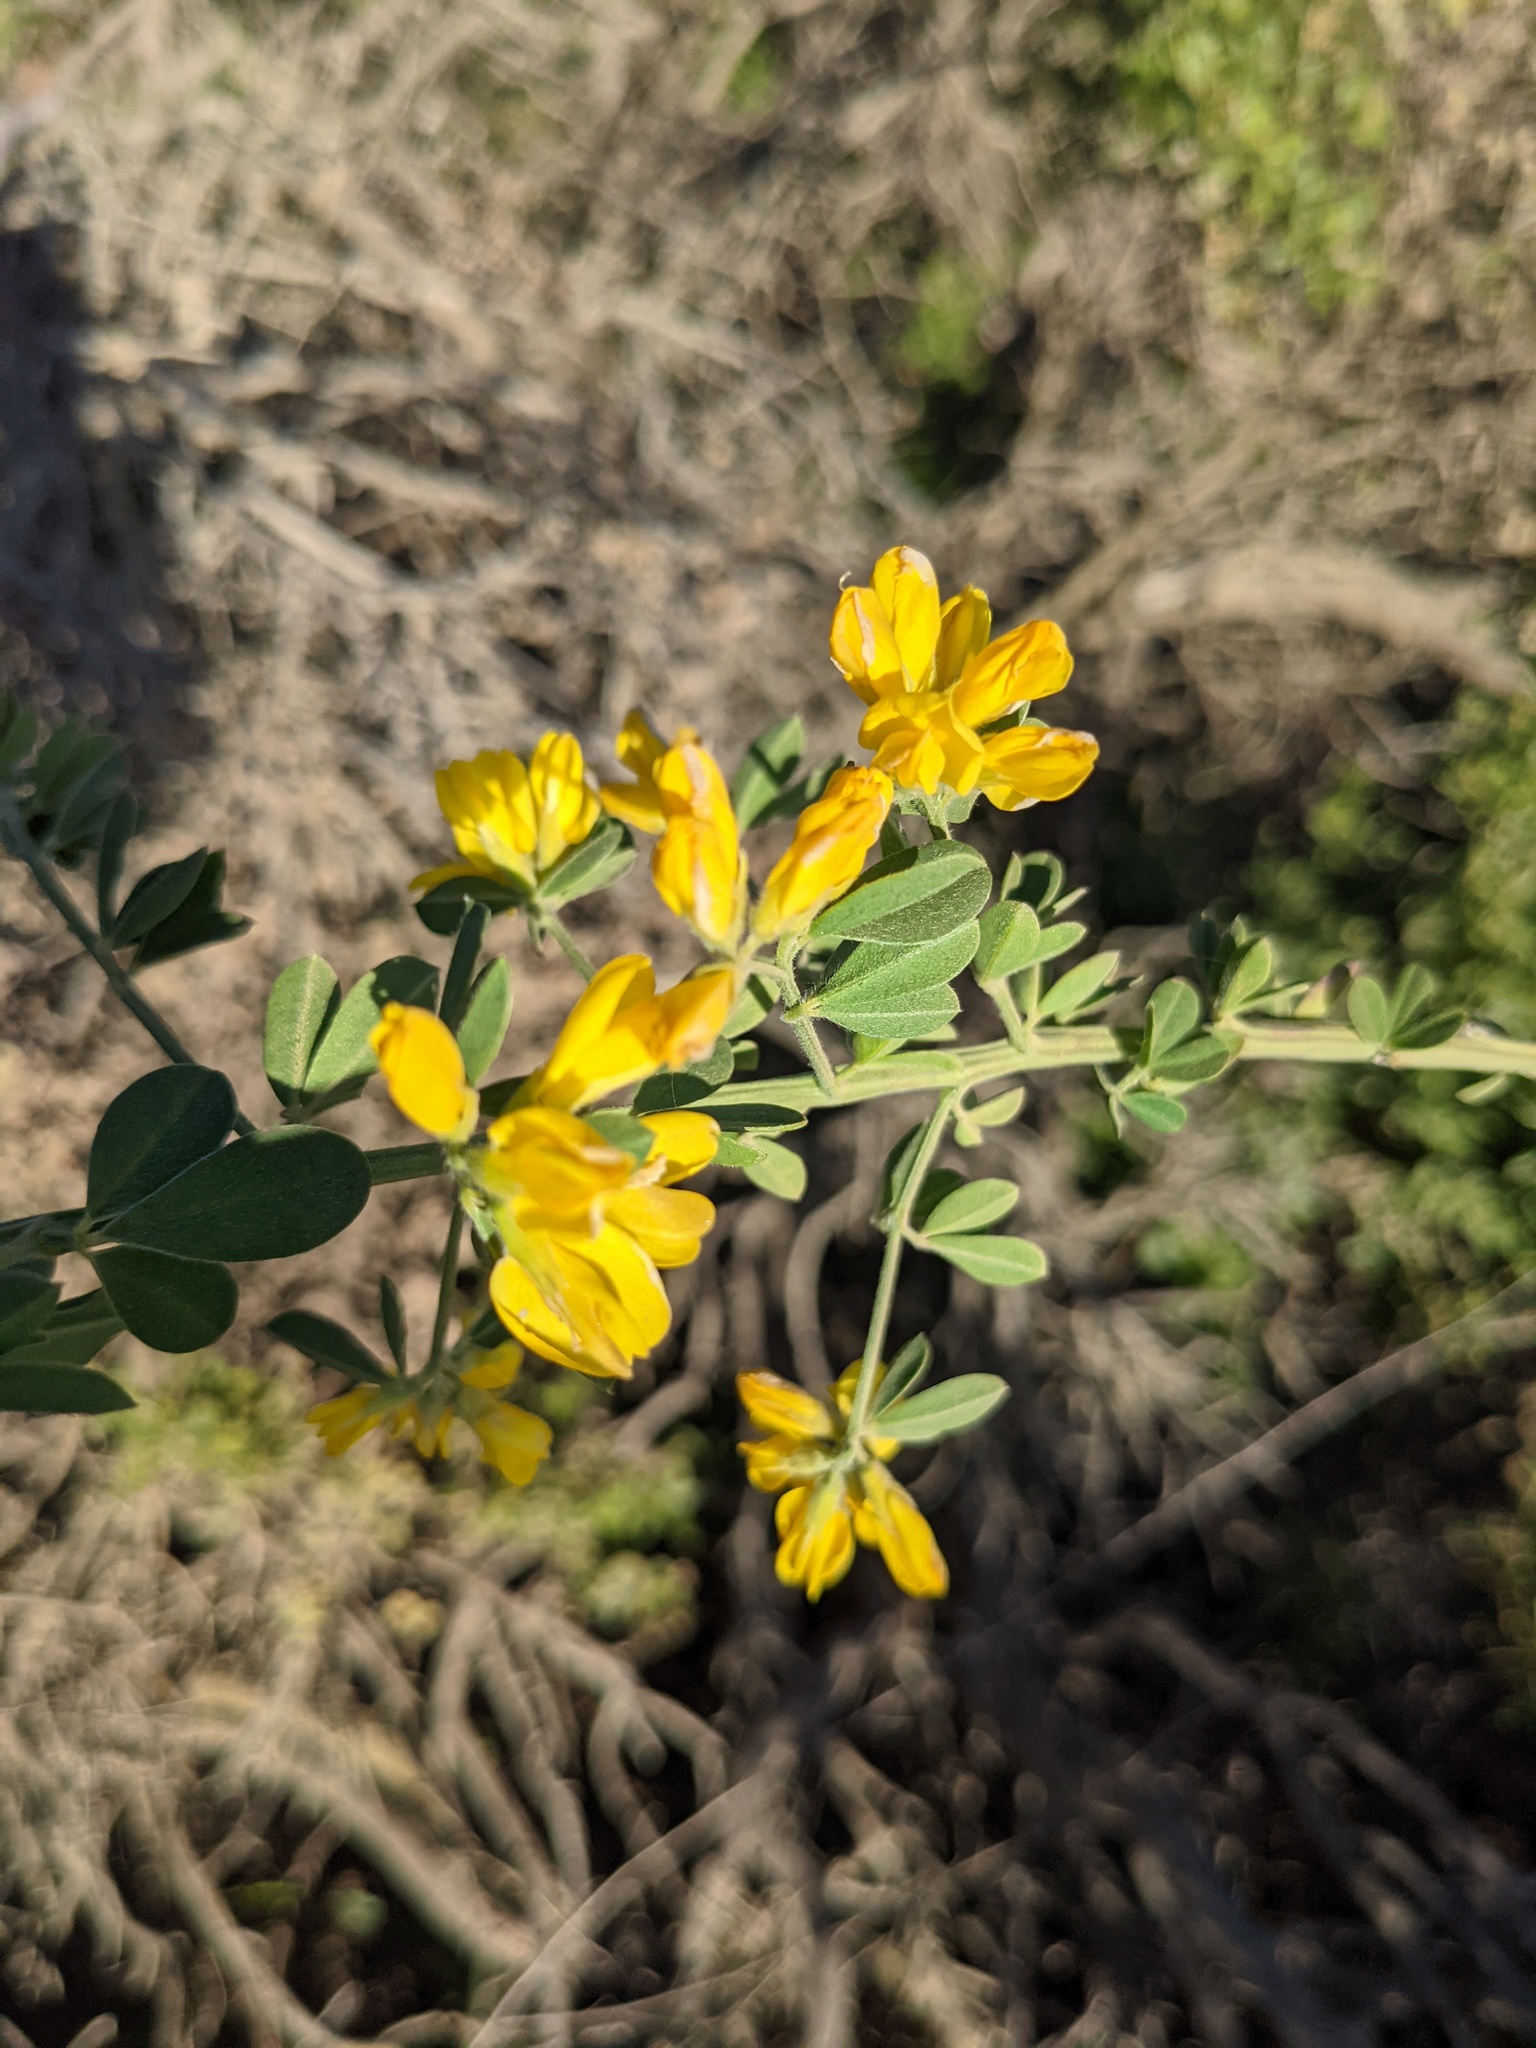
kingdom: Plantae
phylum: Tracheophyta
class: Magnoliopsida
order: Fabales
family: Fabaceae
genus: Genista
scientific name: Genista monspessulana
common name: Montpellier broom
